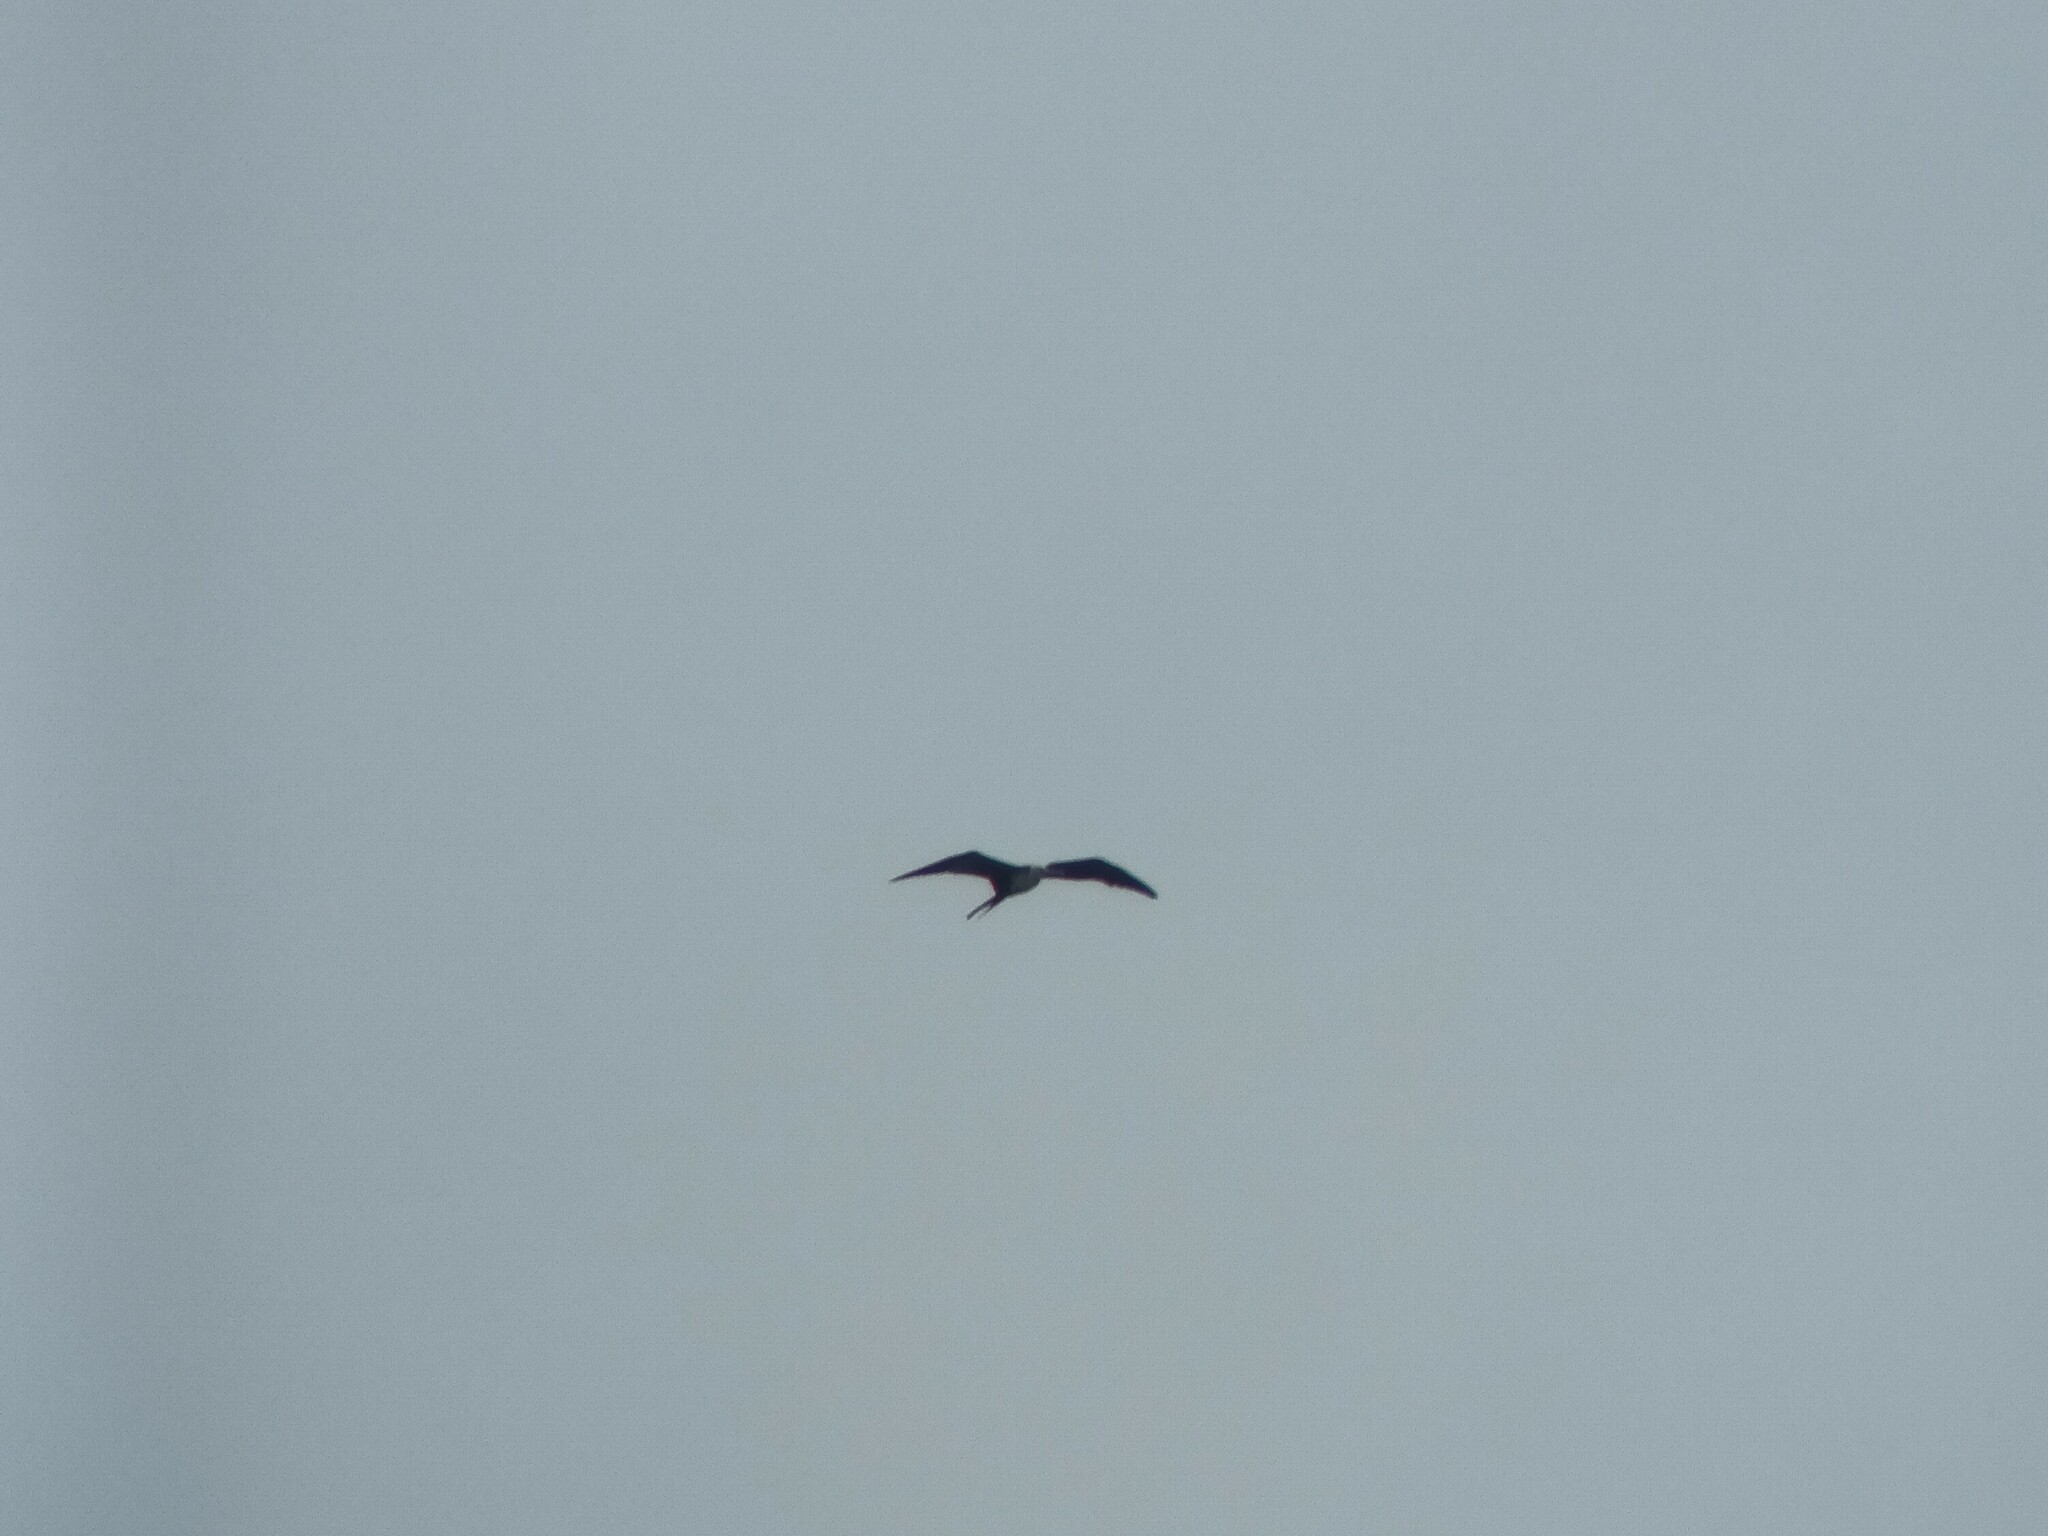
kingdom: Animalia
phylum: Chordata
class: Aves
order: Suliformes
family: Fregatidae
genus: Fregata
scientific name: Fregata minor
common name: Great frigatebird
